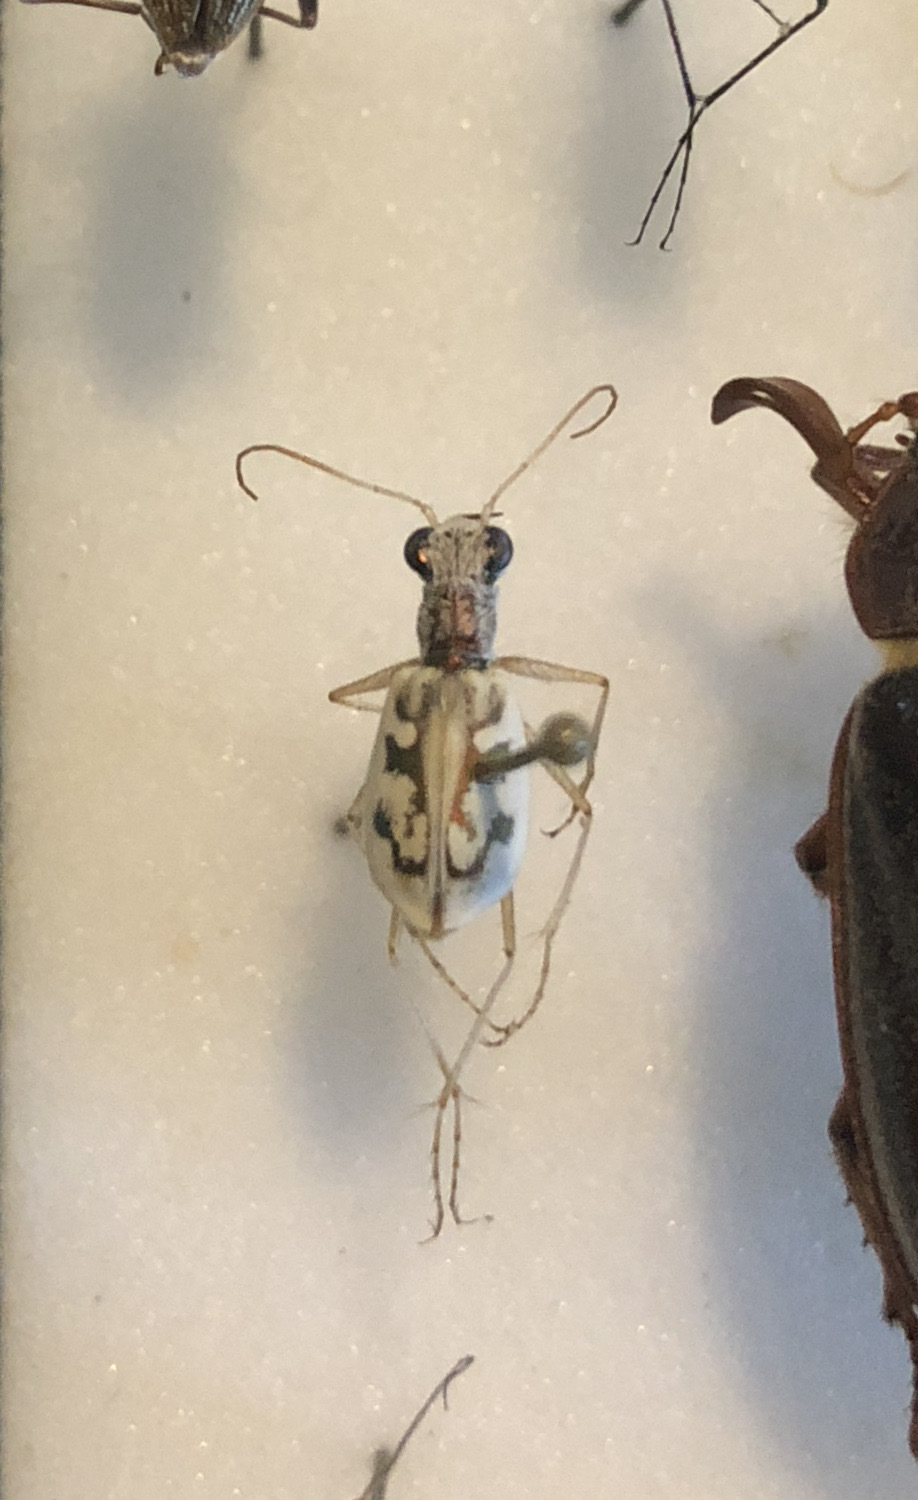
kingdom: Animalia
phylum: Arthropoda
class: Insecta
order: Coleoptera
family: Carabidae
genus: Ellipsoptera
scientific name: Ellipsoptera lepida
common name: Ghost tiger beetle
